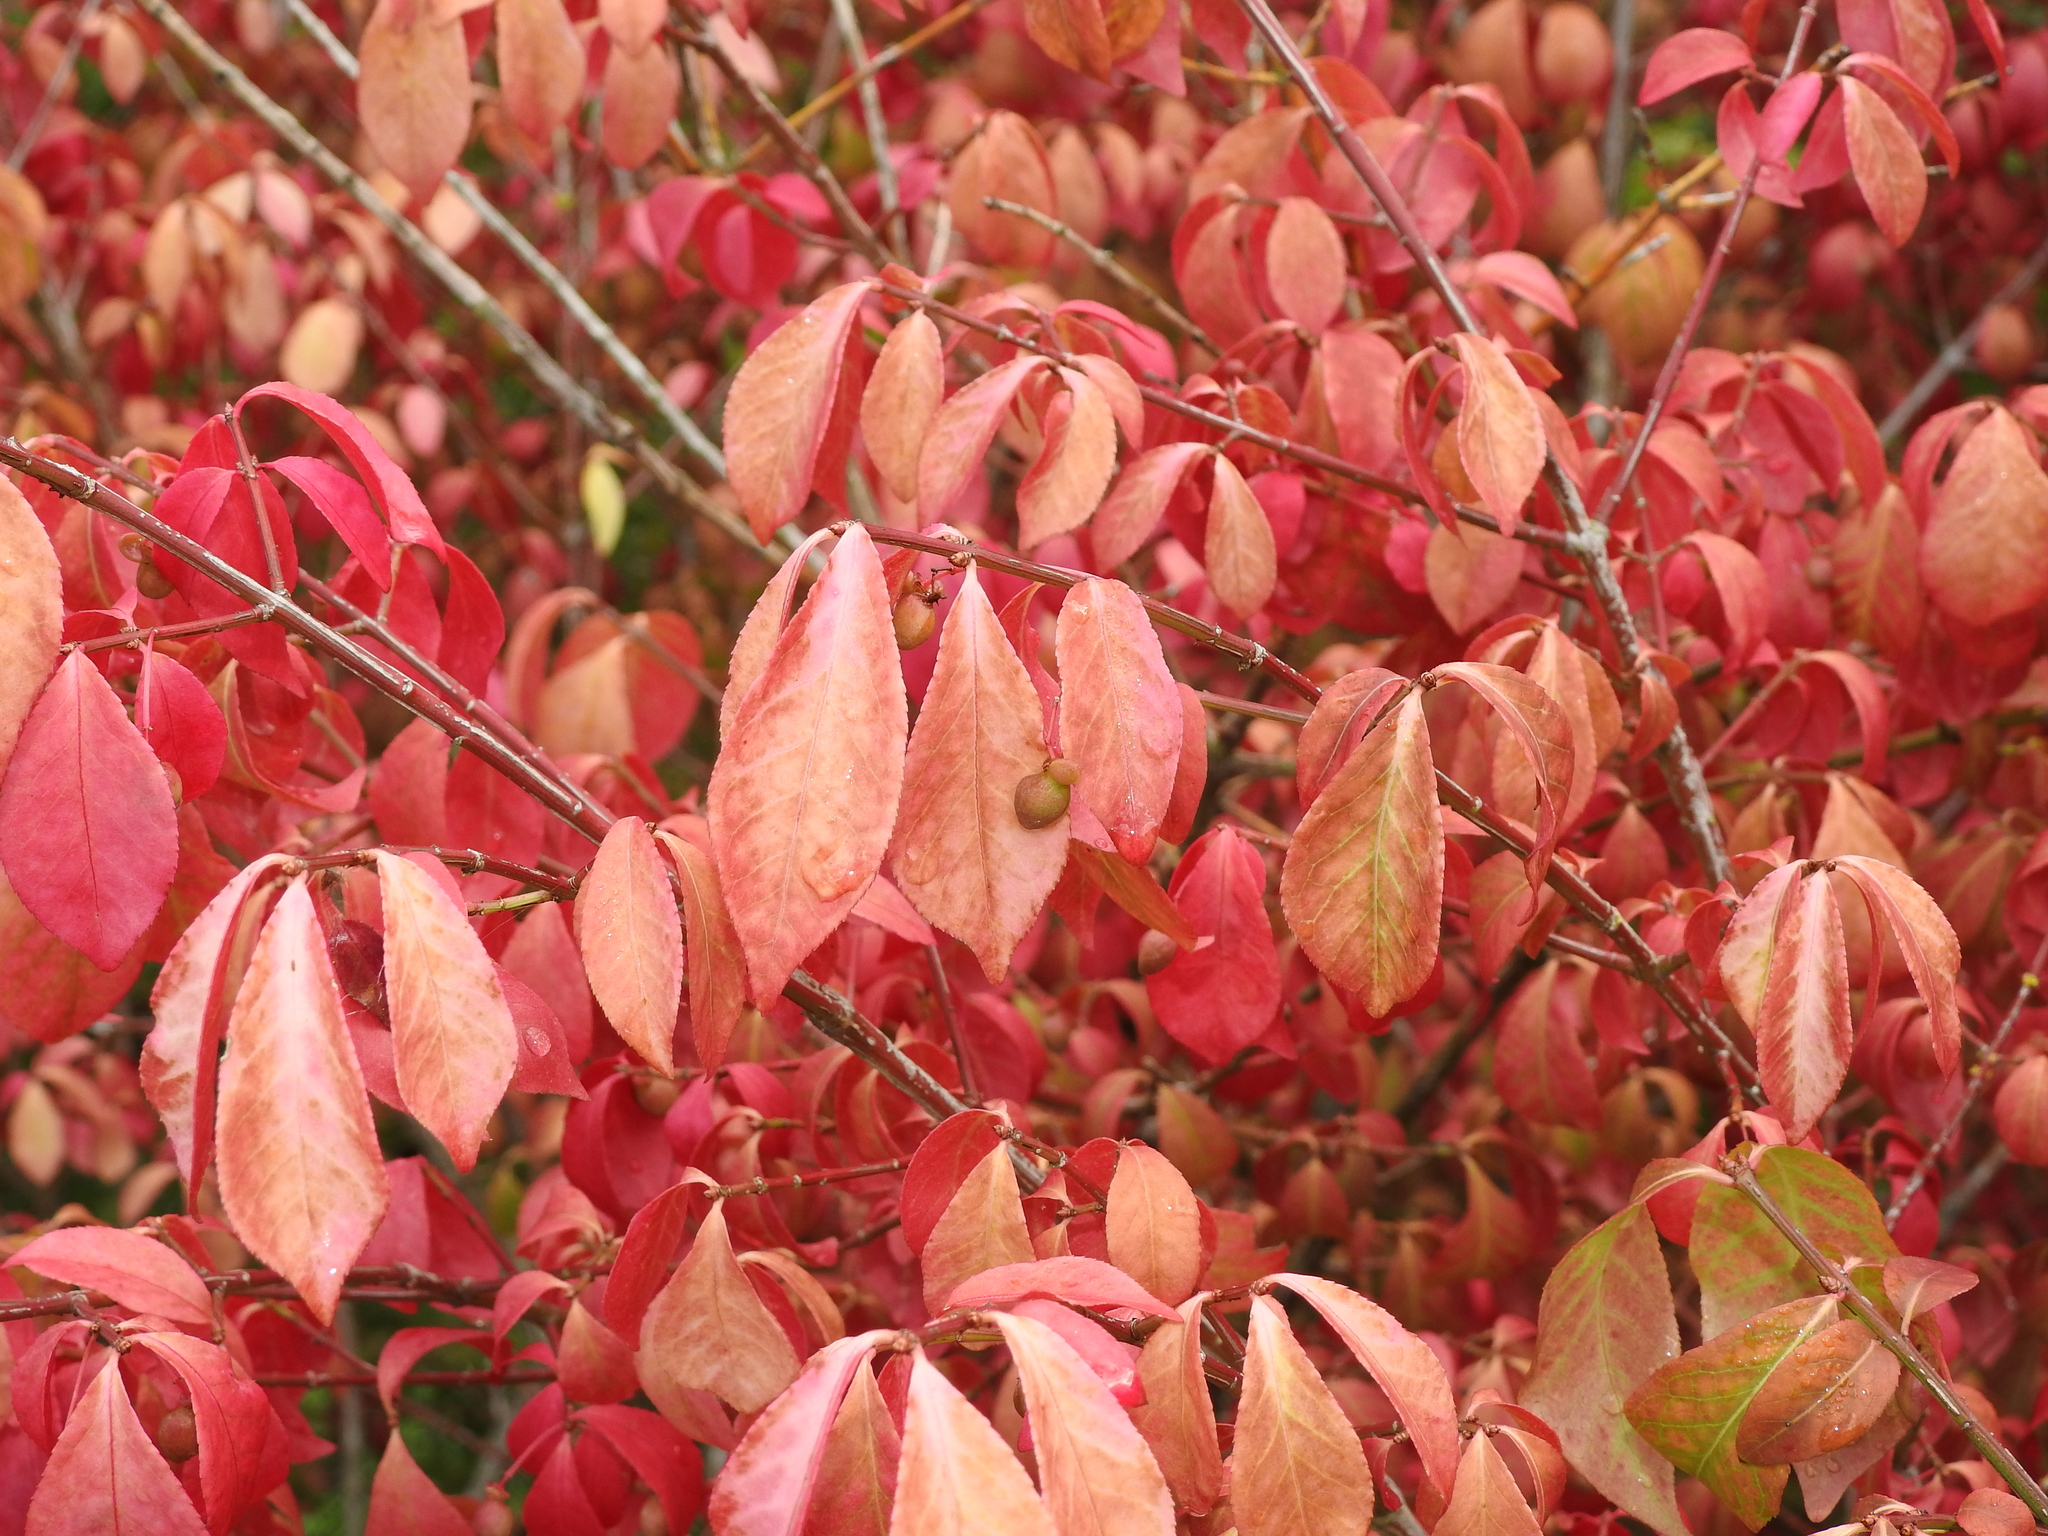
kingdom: Plantae
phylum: Tracheophyta
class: Magnoliopsida
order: Celastrales
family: Celastraceae
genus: Euonymus
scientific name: Euonymus alatus
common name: Winged euonymus
